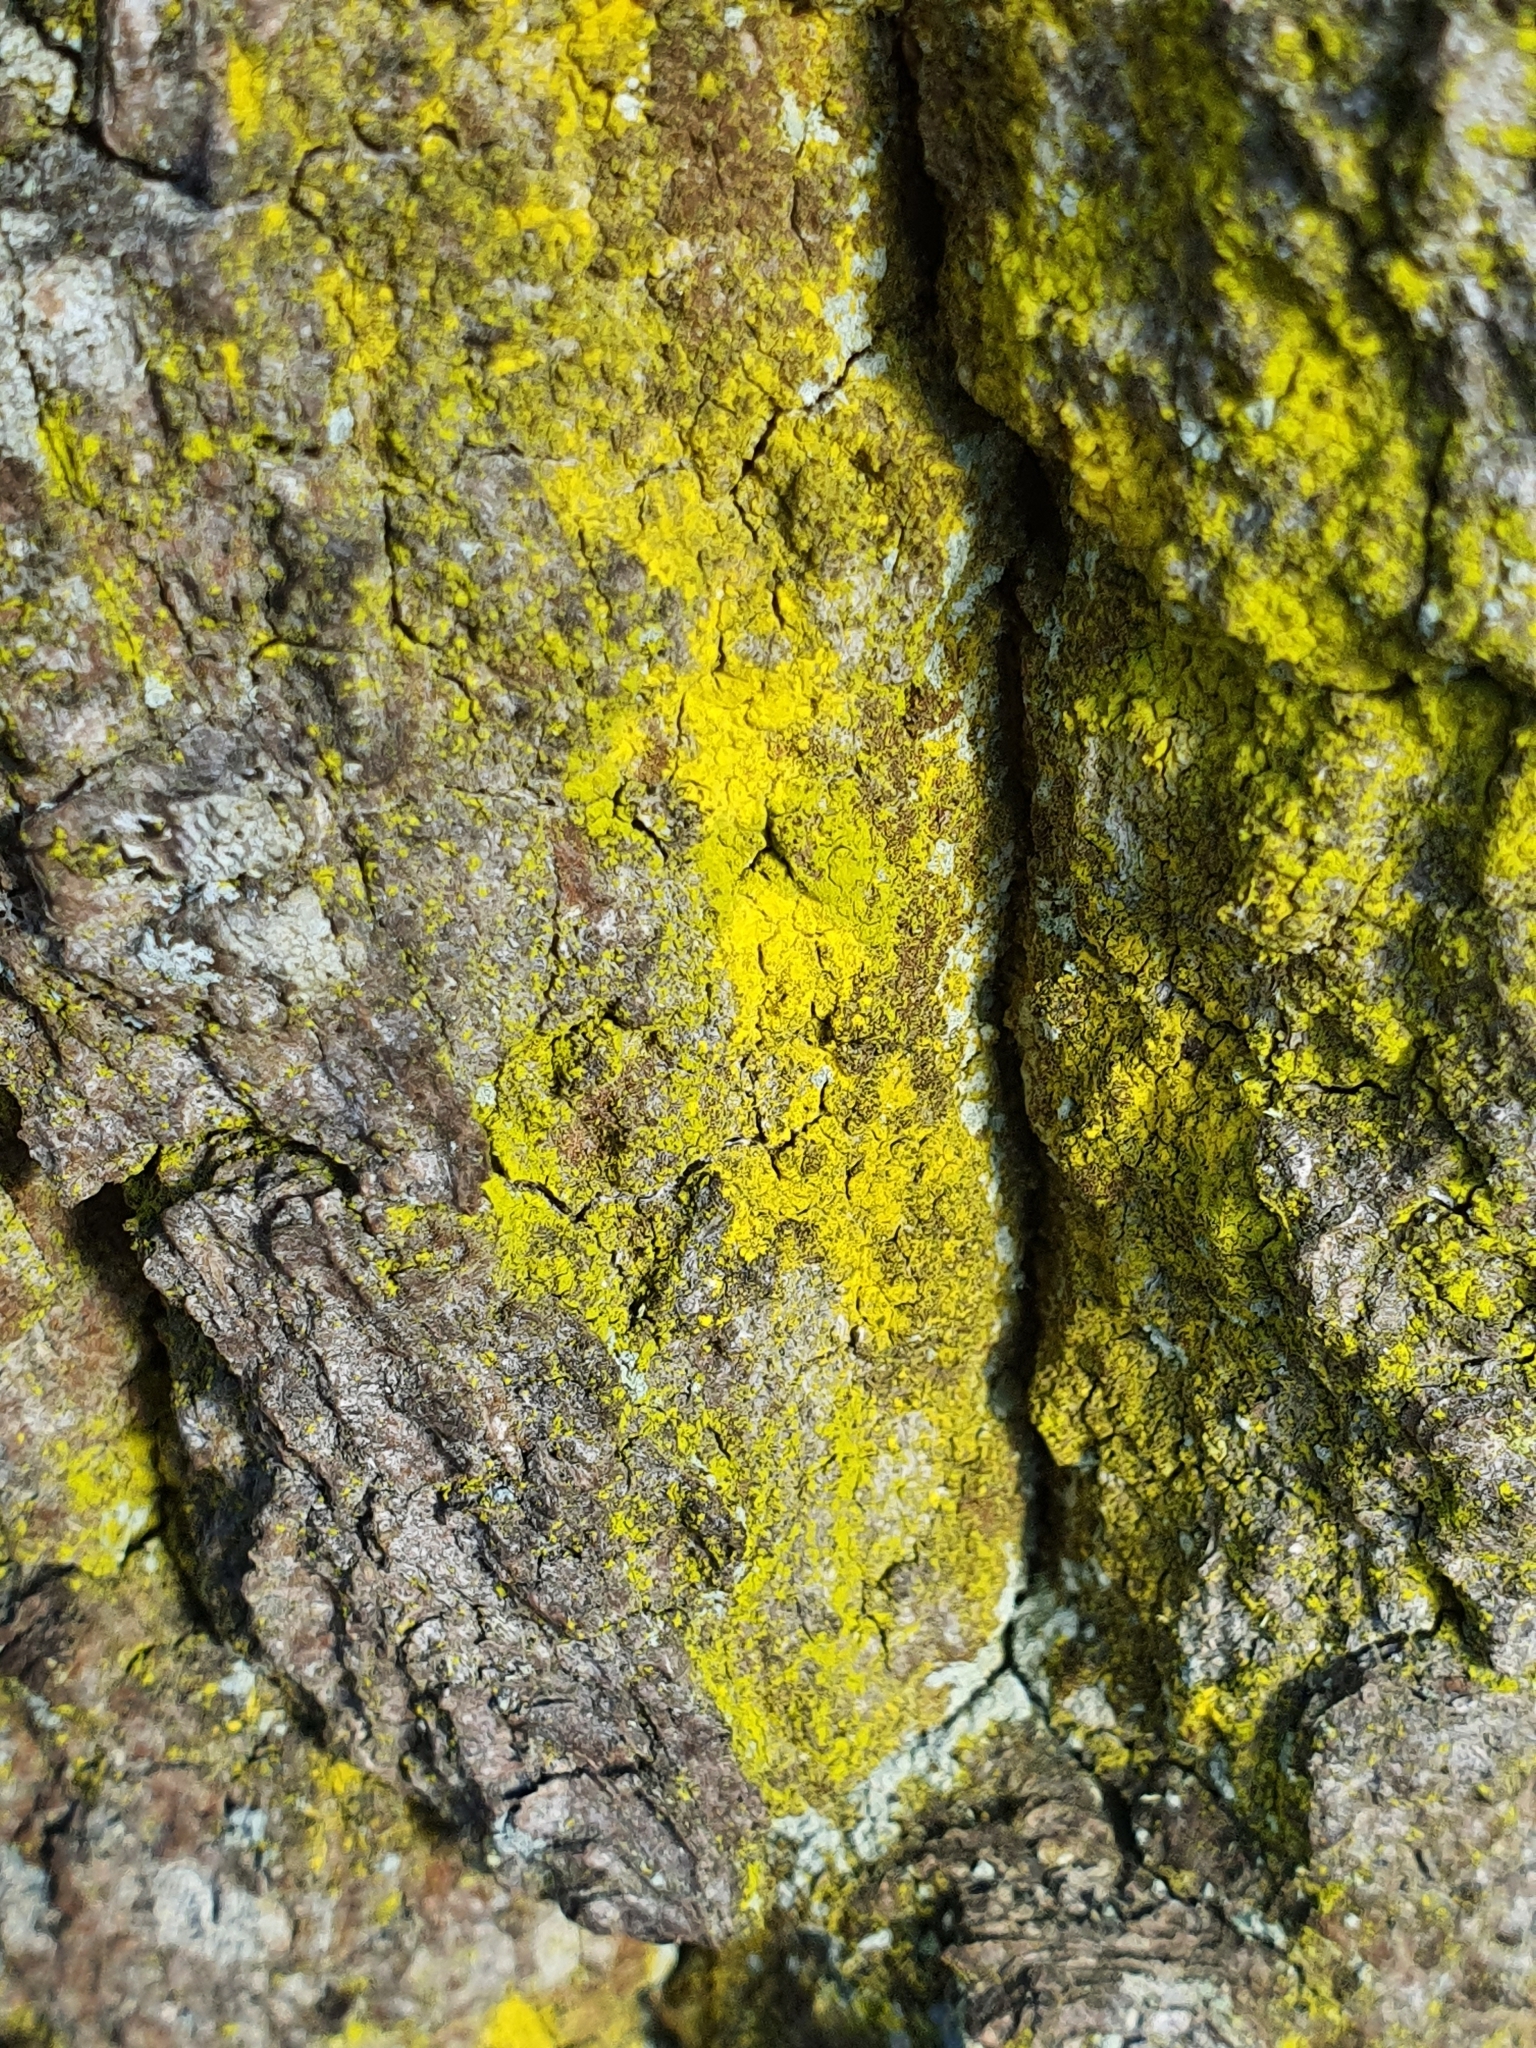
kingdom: Fungi
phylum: Ascomycota
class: Arthoniomycetes
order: Arthoniales
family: Chrysotrichaceae
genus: Chrysothrix
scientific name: Chrysothrix candelaris
